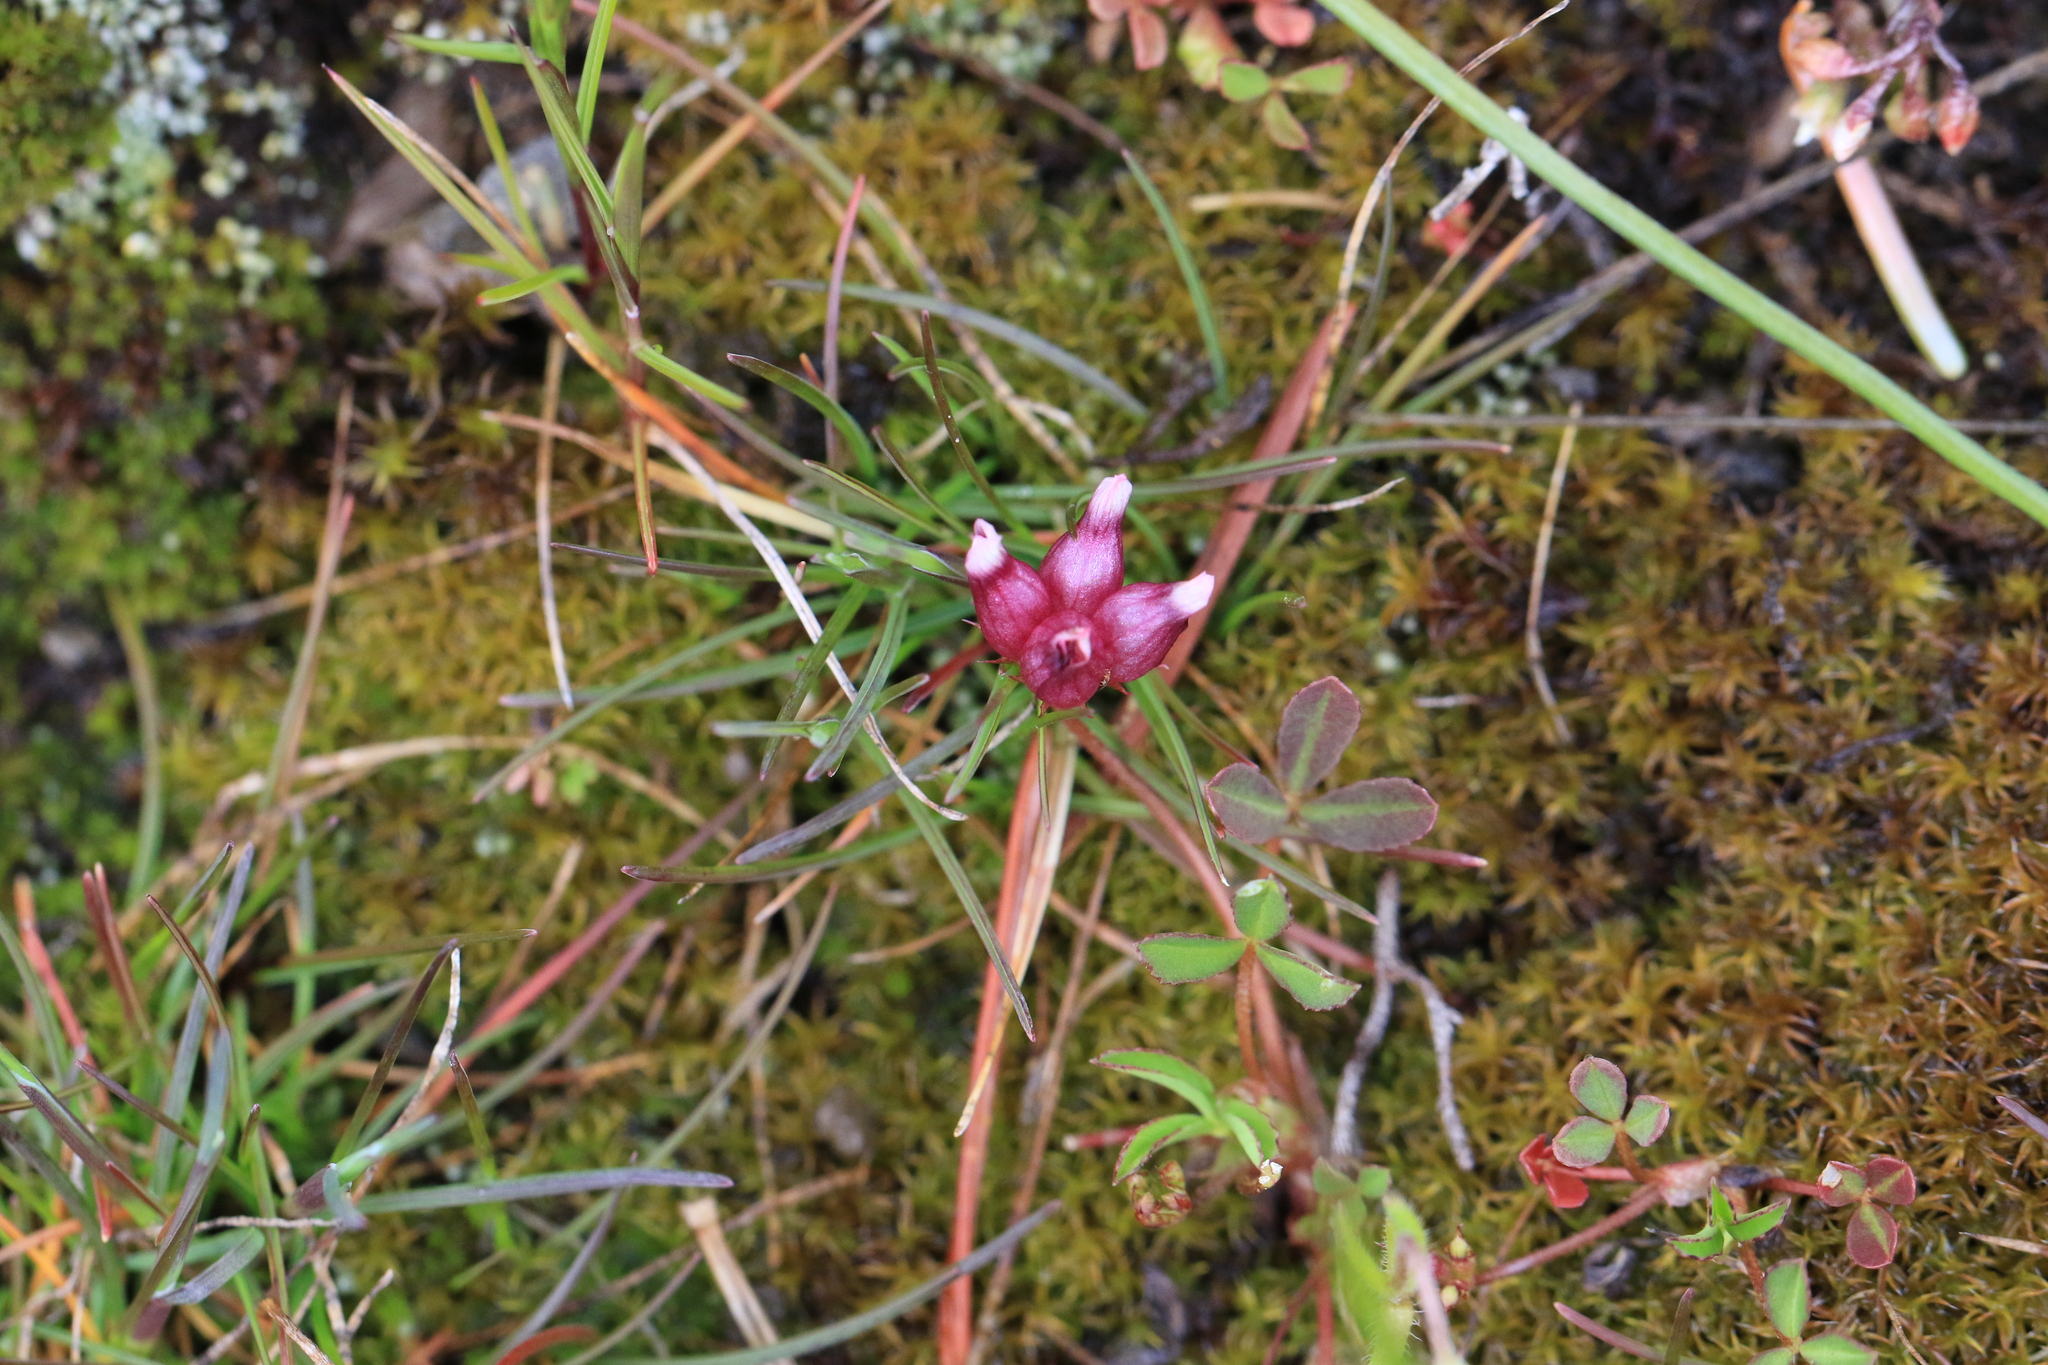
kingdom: Plantae
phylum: Tracheophyta
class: Magnoliopsida
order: Fabales
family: Fabaceae
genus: Trifolium
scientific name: Trifolium depauperatum
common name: Poverty clover
